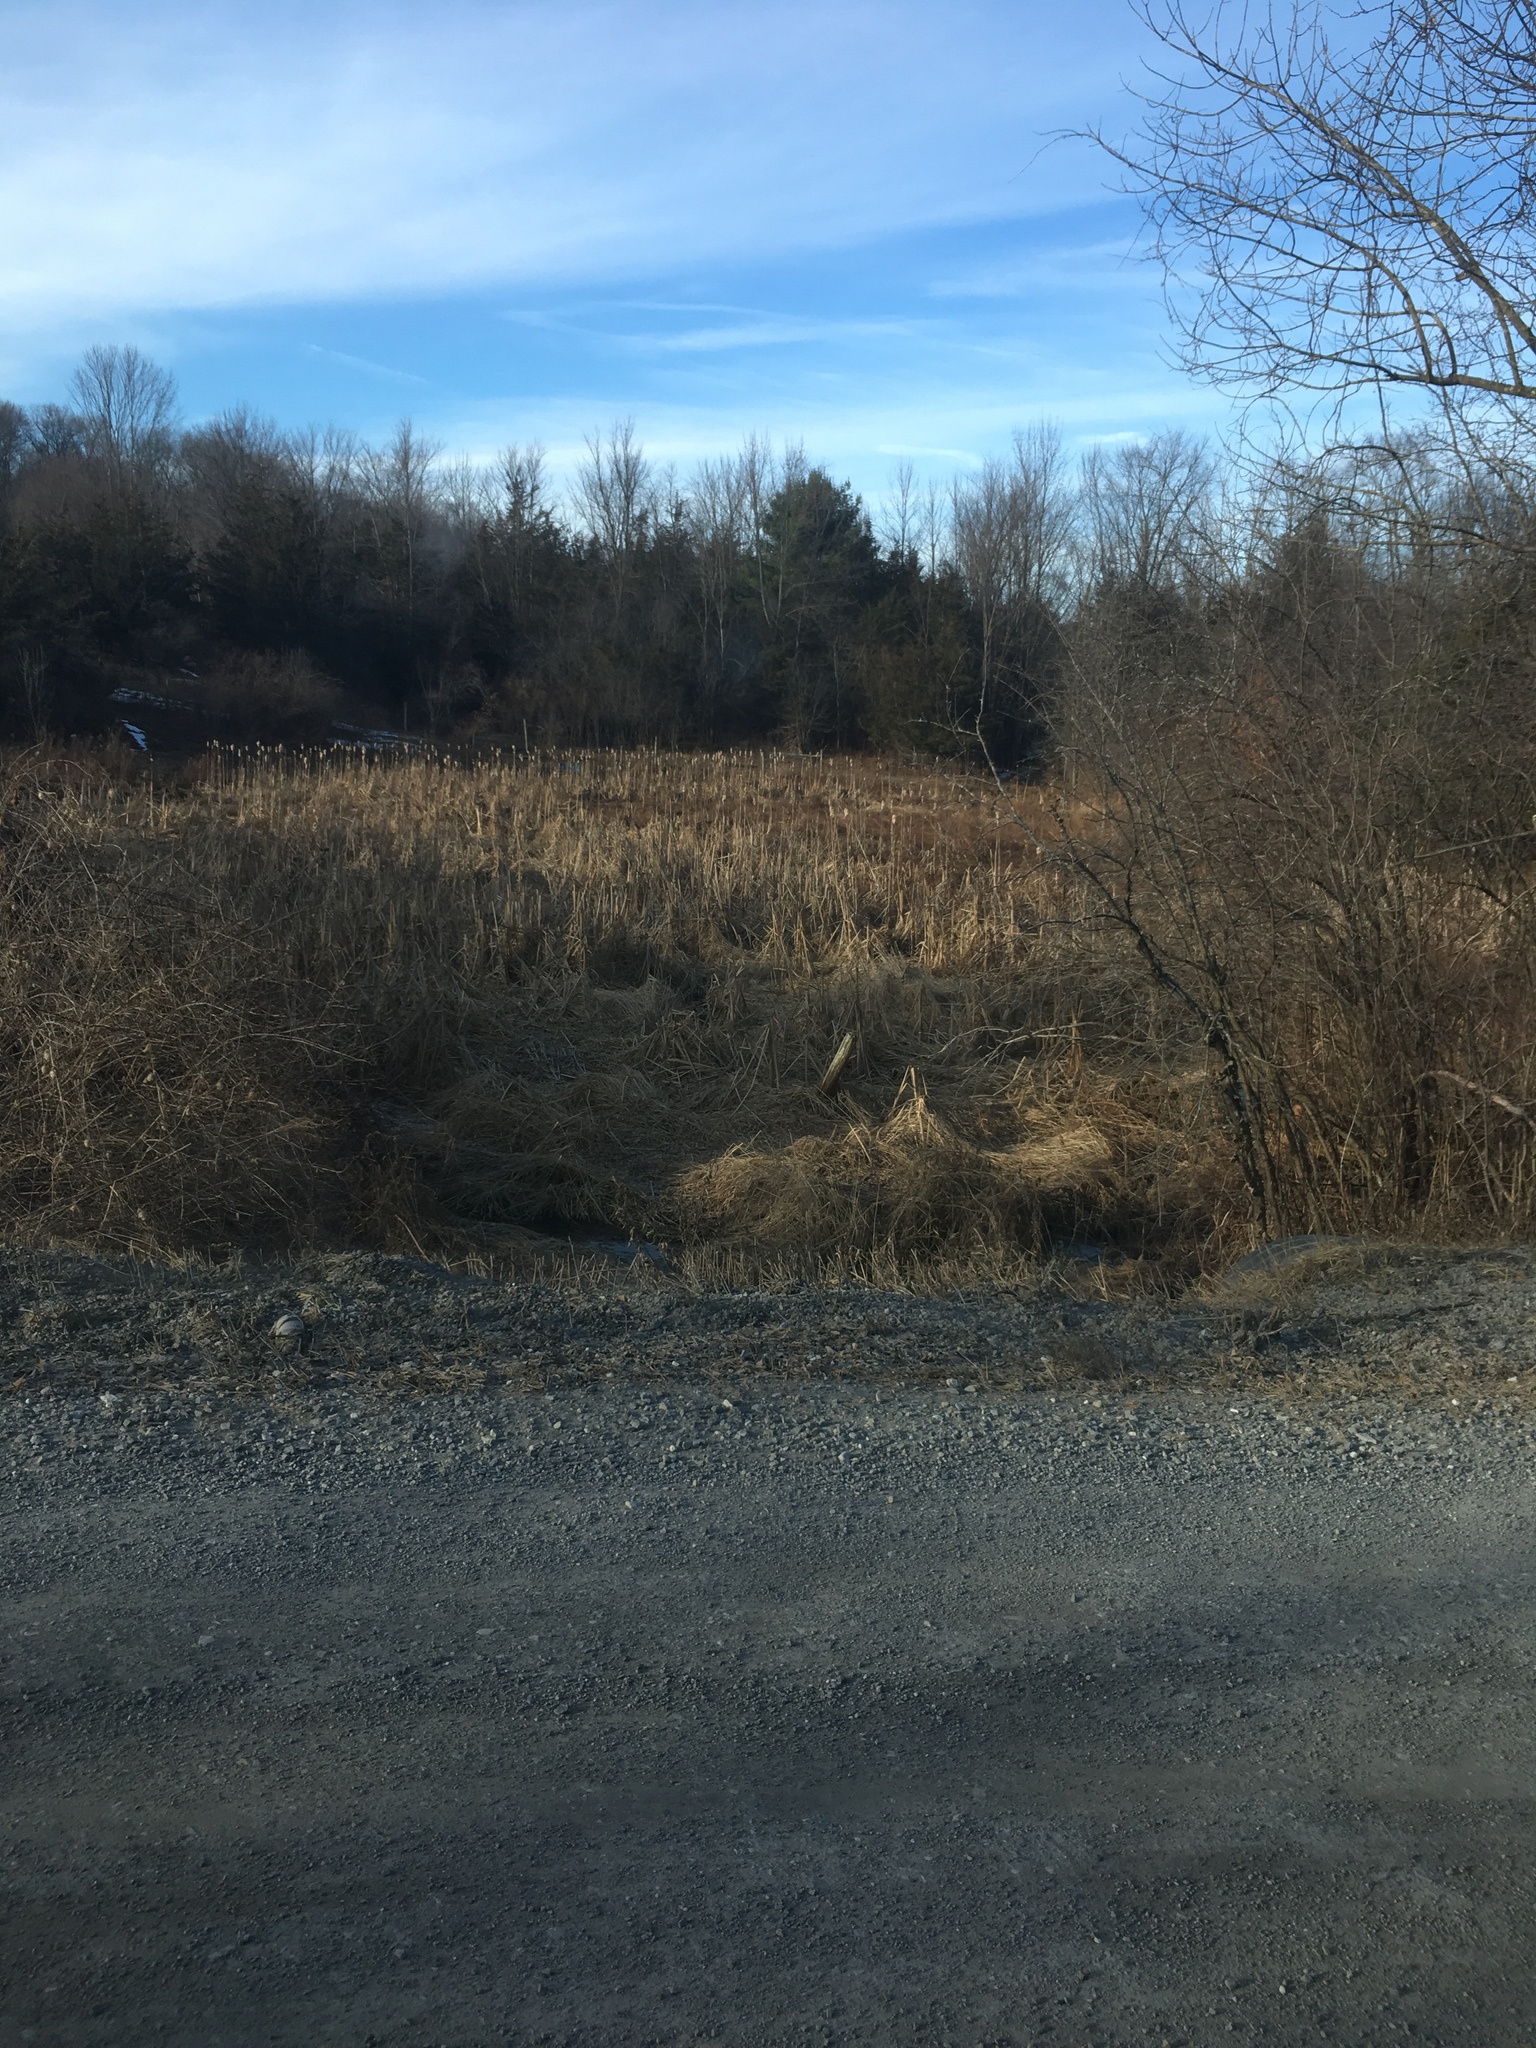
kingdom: Plantae
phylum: Tracheophyta
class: Liliopsida
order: Poales
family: Typhaceae
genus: Typha
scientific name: Typha
